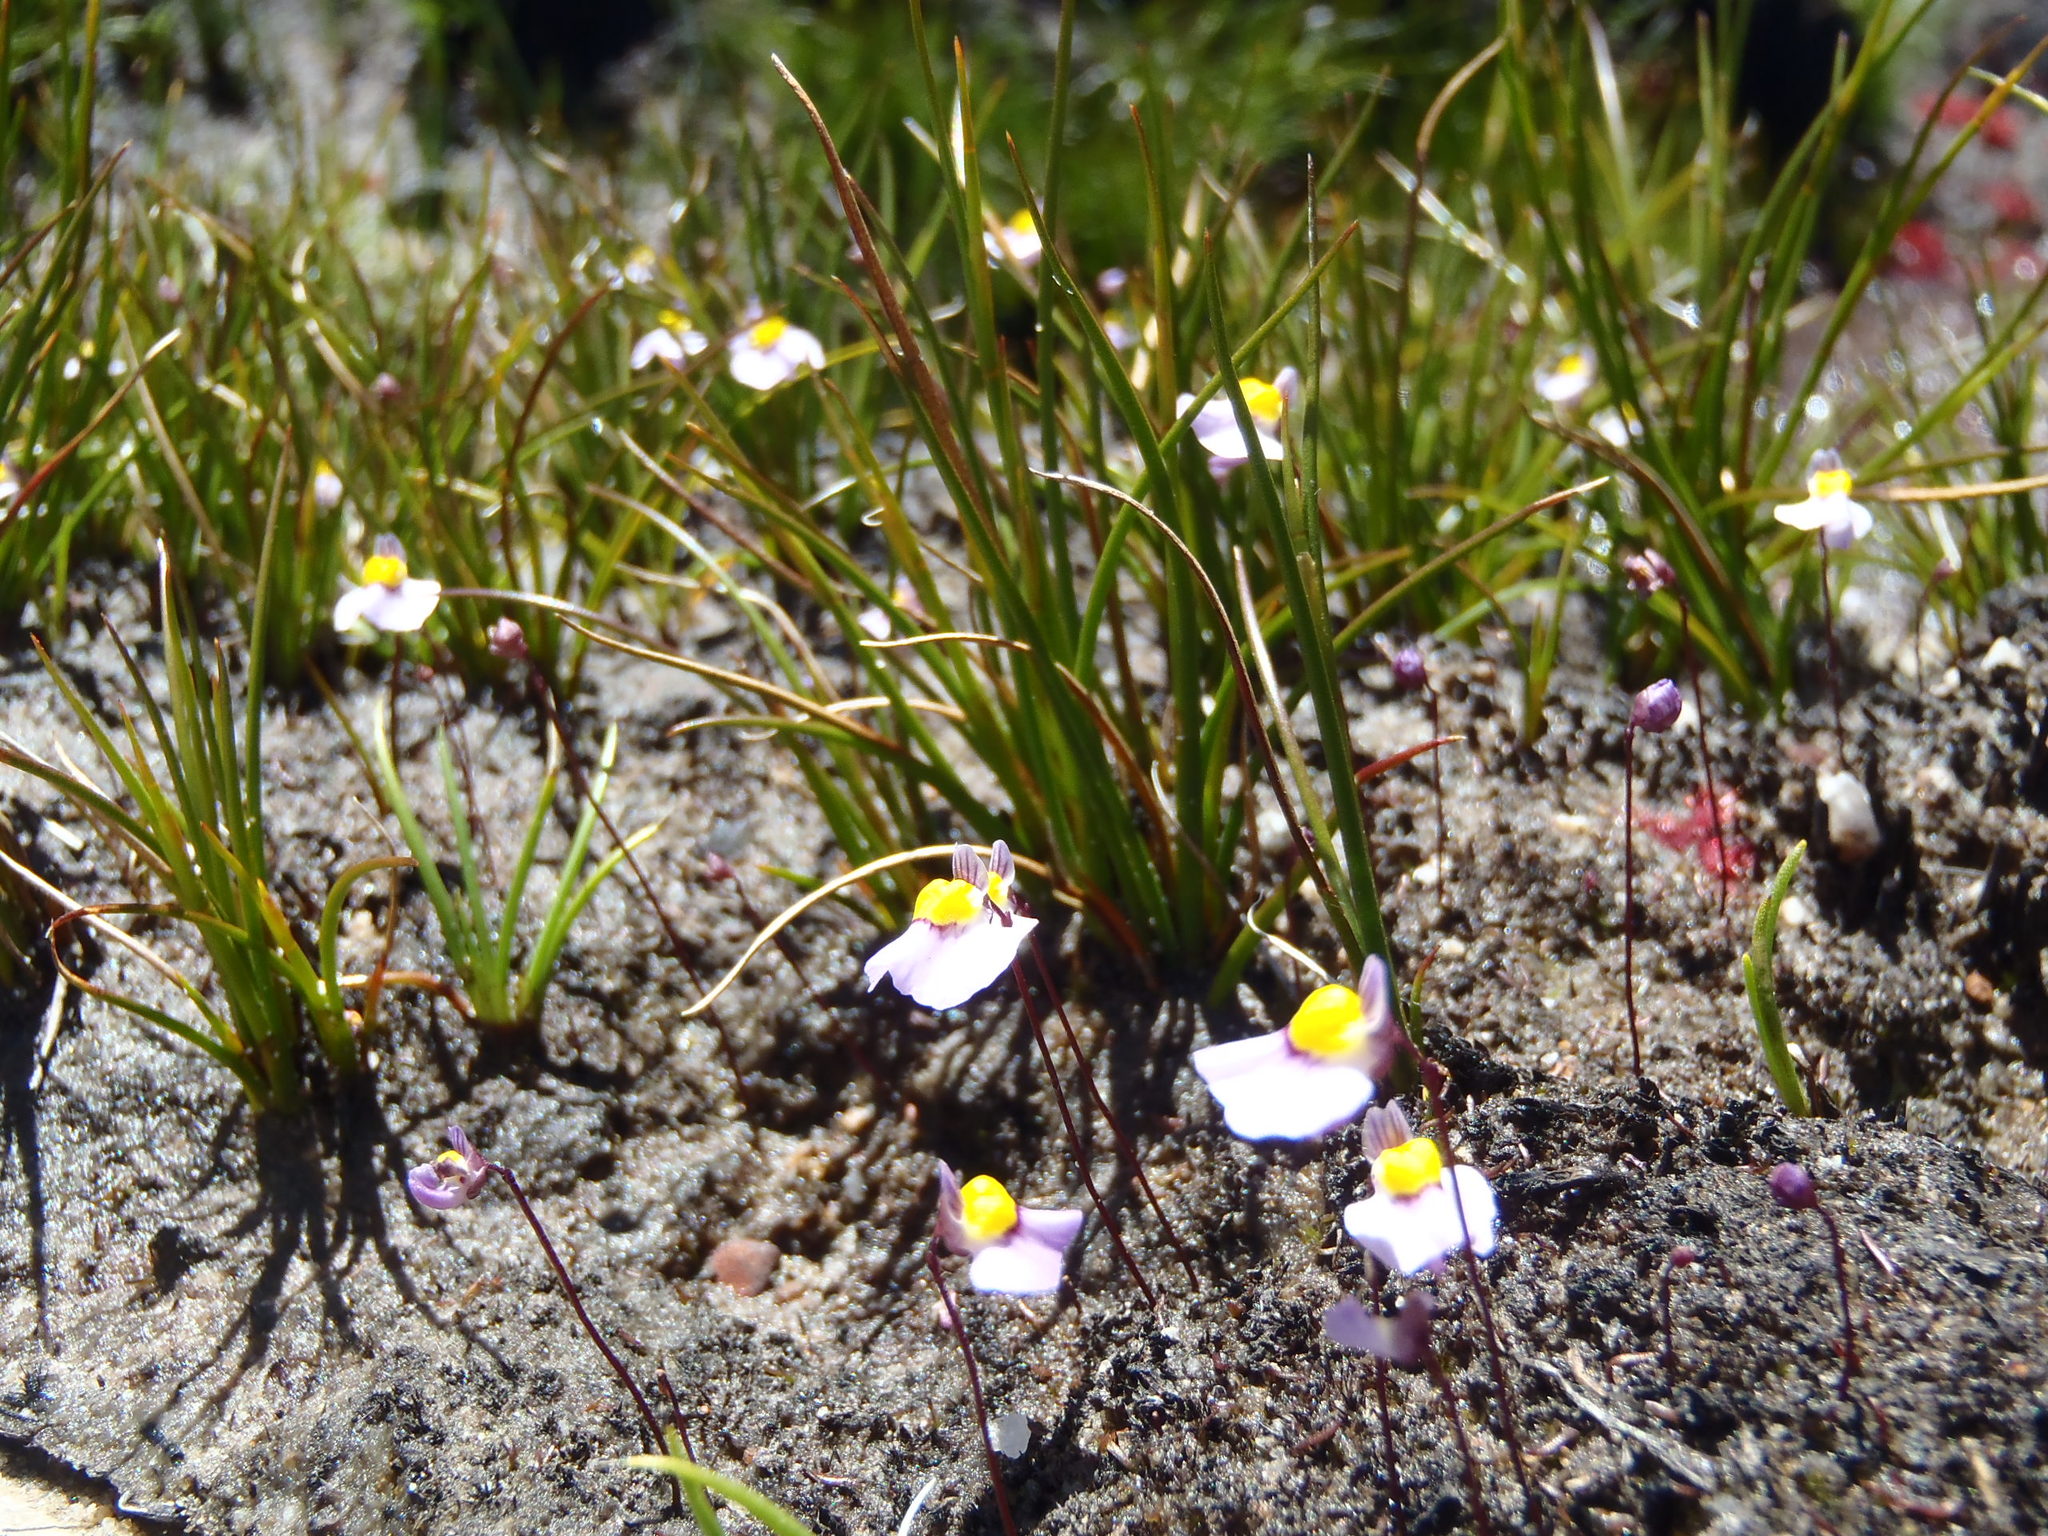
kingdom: Plantae
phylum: Tracheophyta
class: Magnoliopsida
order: Lamiales
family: Lentibulariaceae
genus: Utricularia
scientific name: Utricularia bisquamata
